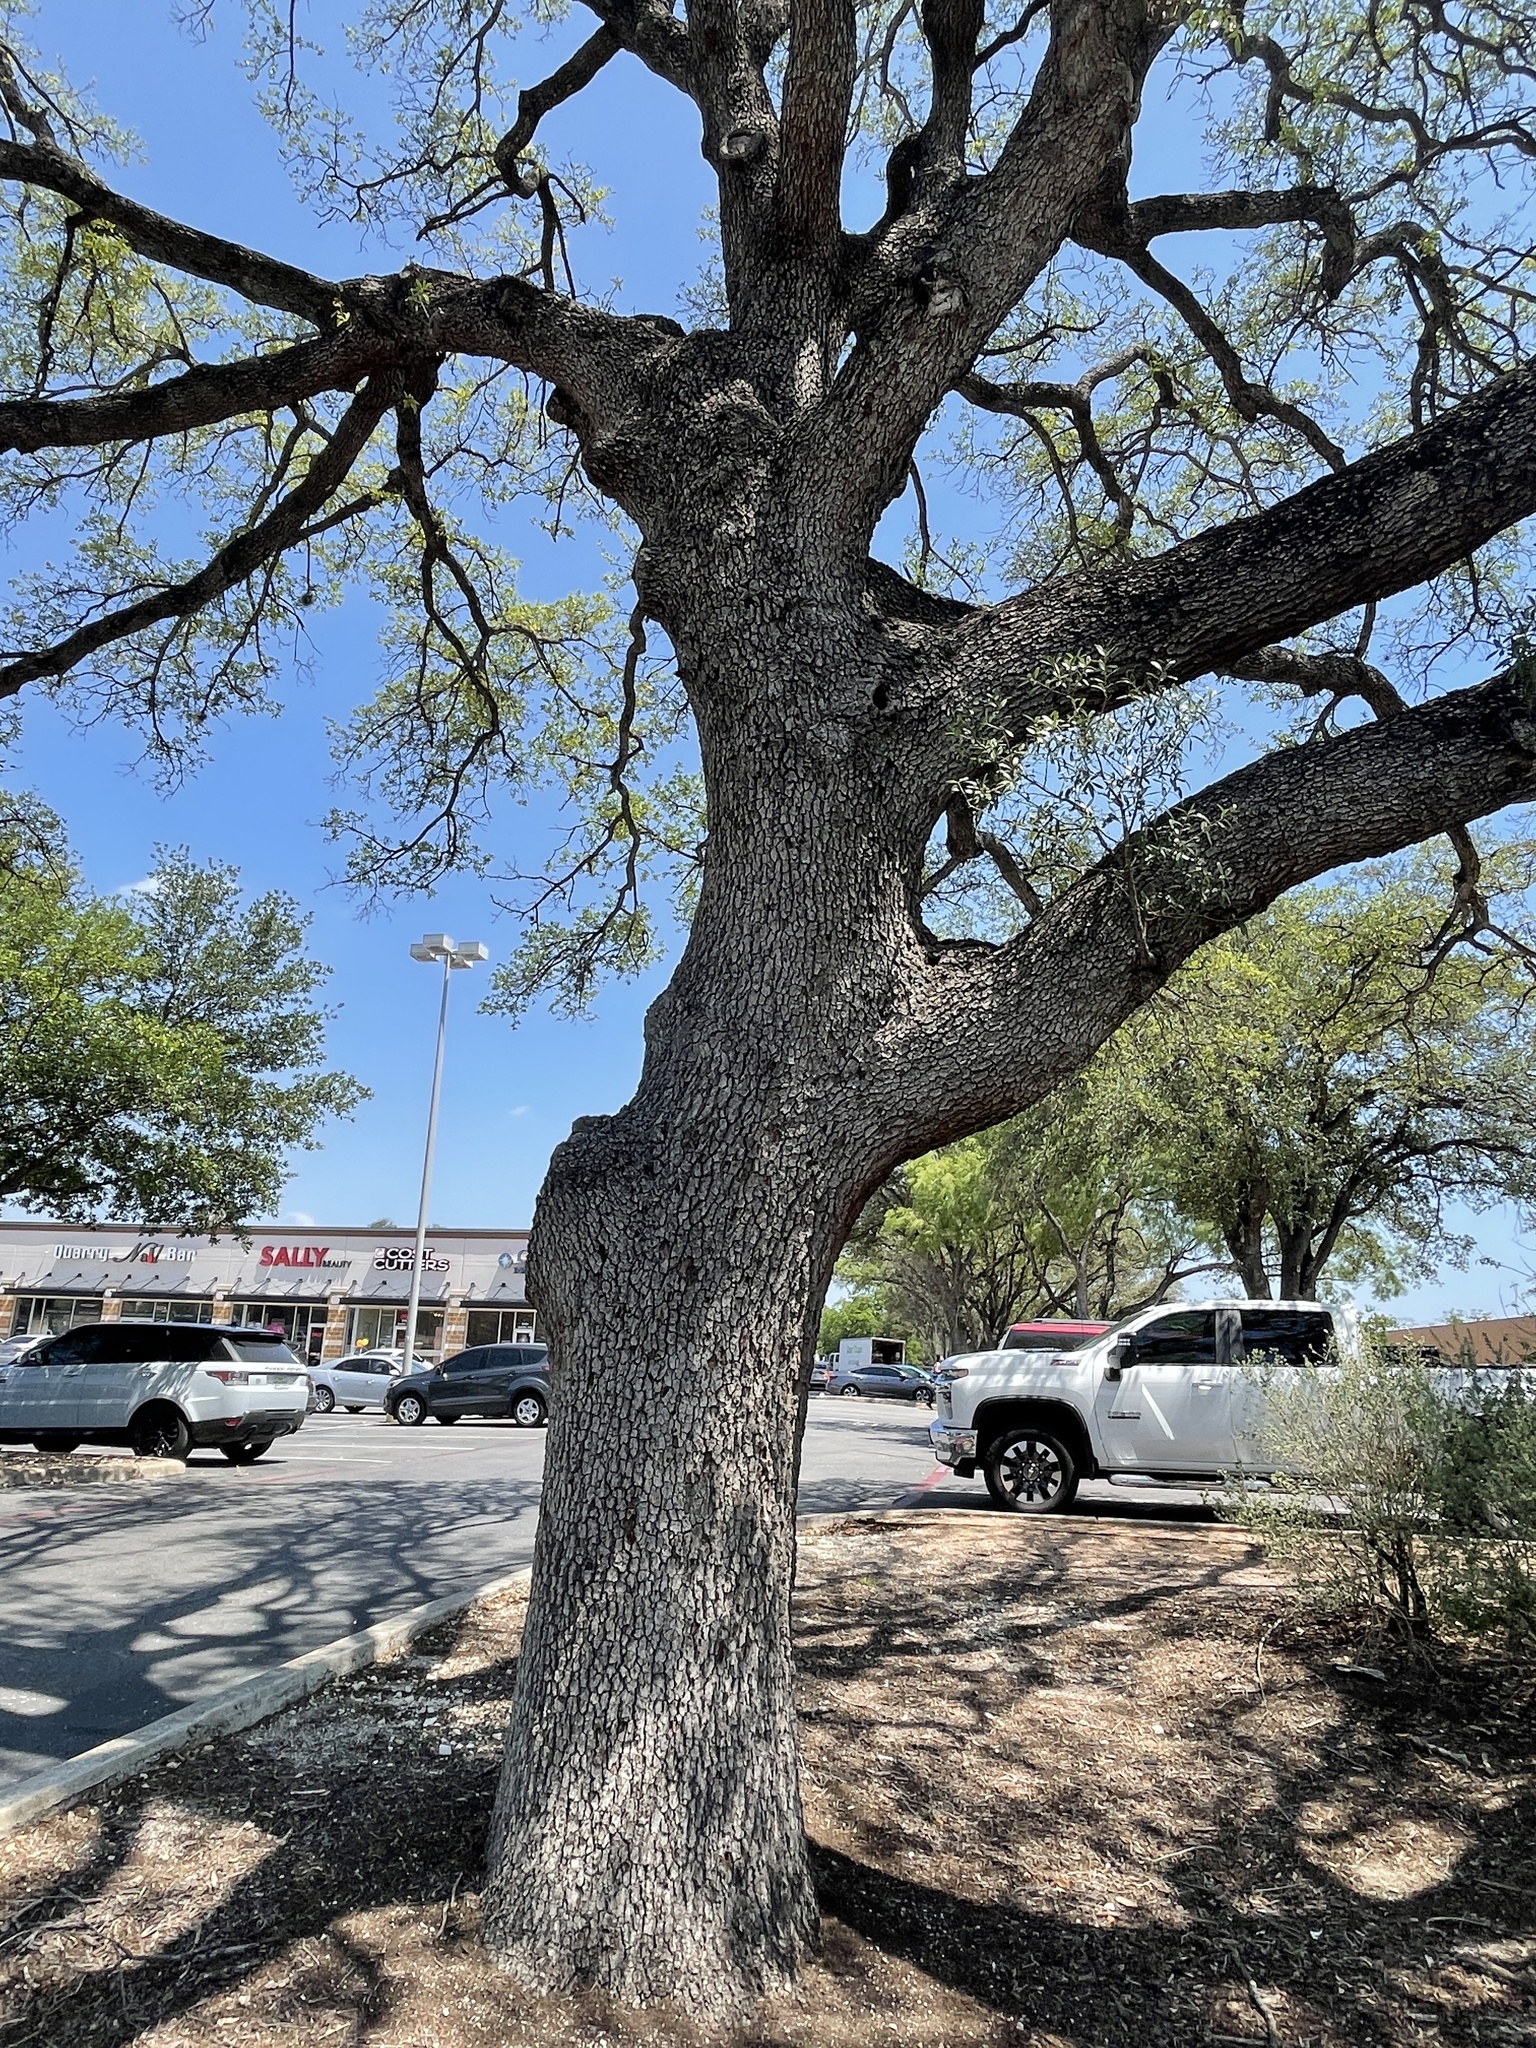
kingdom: Plantae
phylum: Tracheophyta
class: Magnoliopsida
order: Fagales
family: Fagaceae
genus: Quercus
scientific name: Quercus fusiformis
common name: Texas live oak
